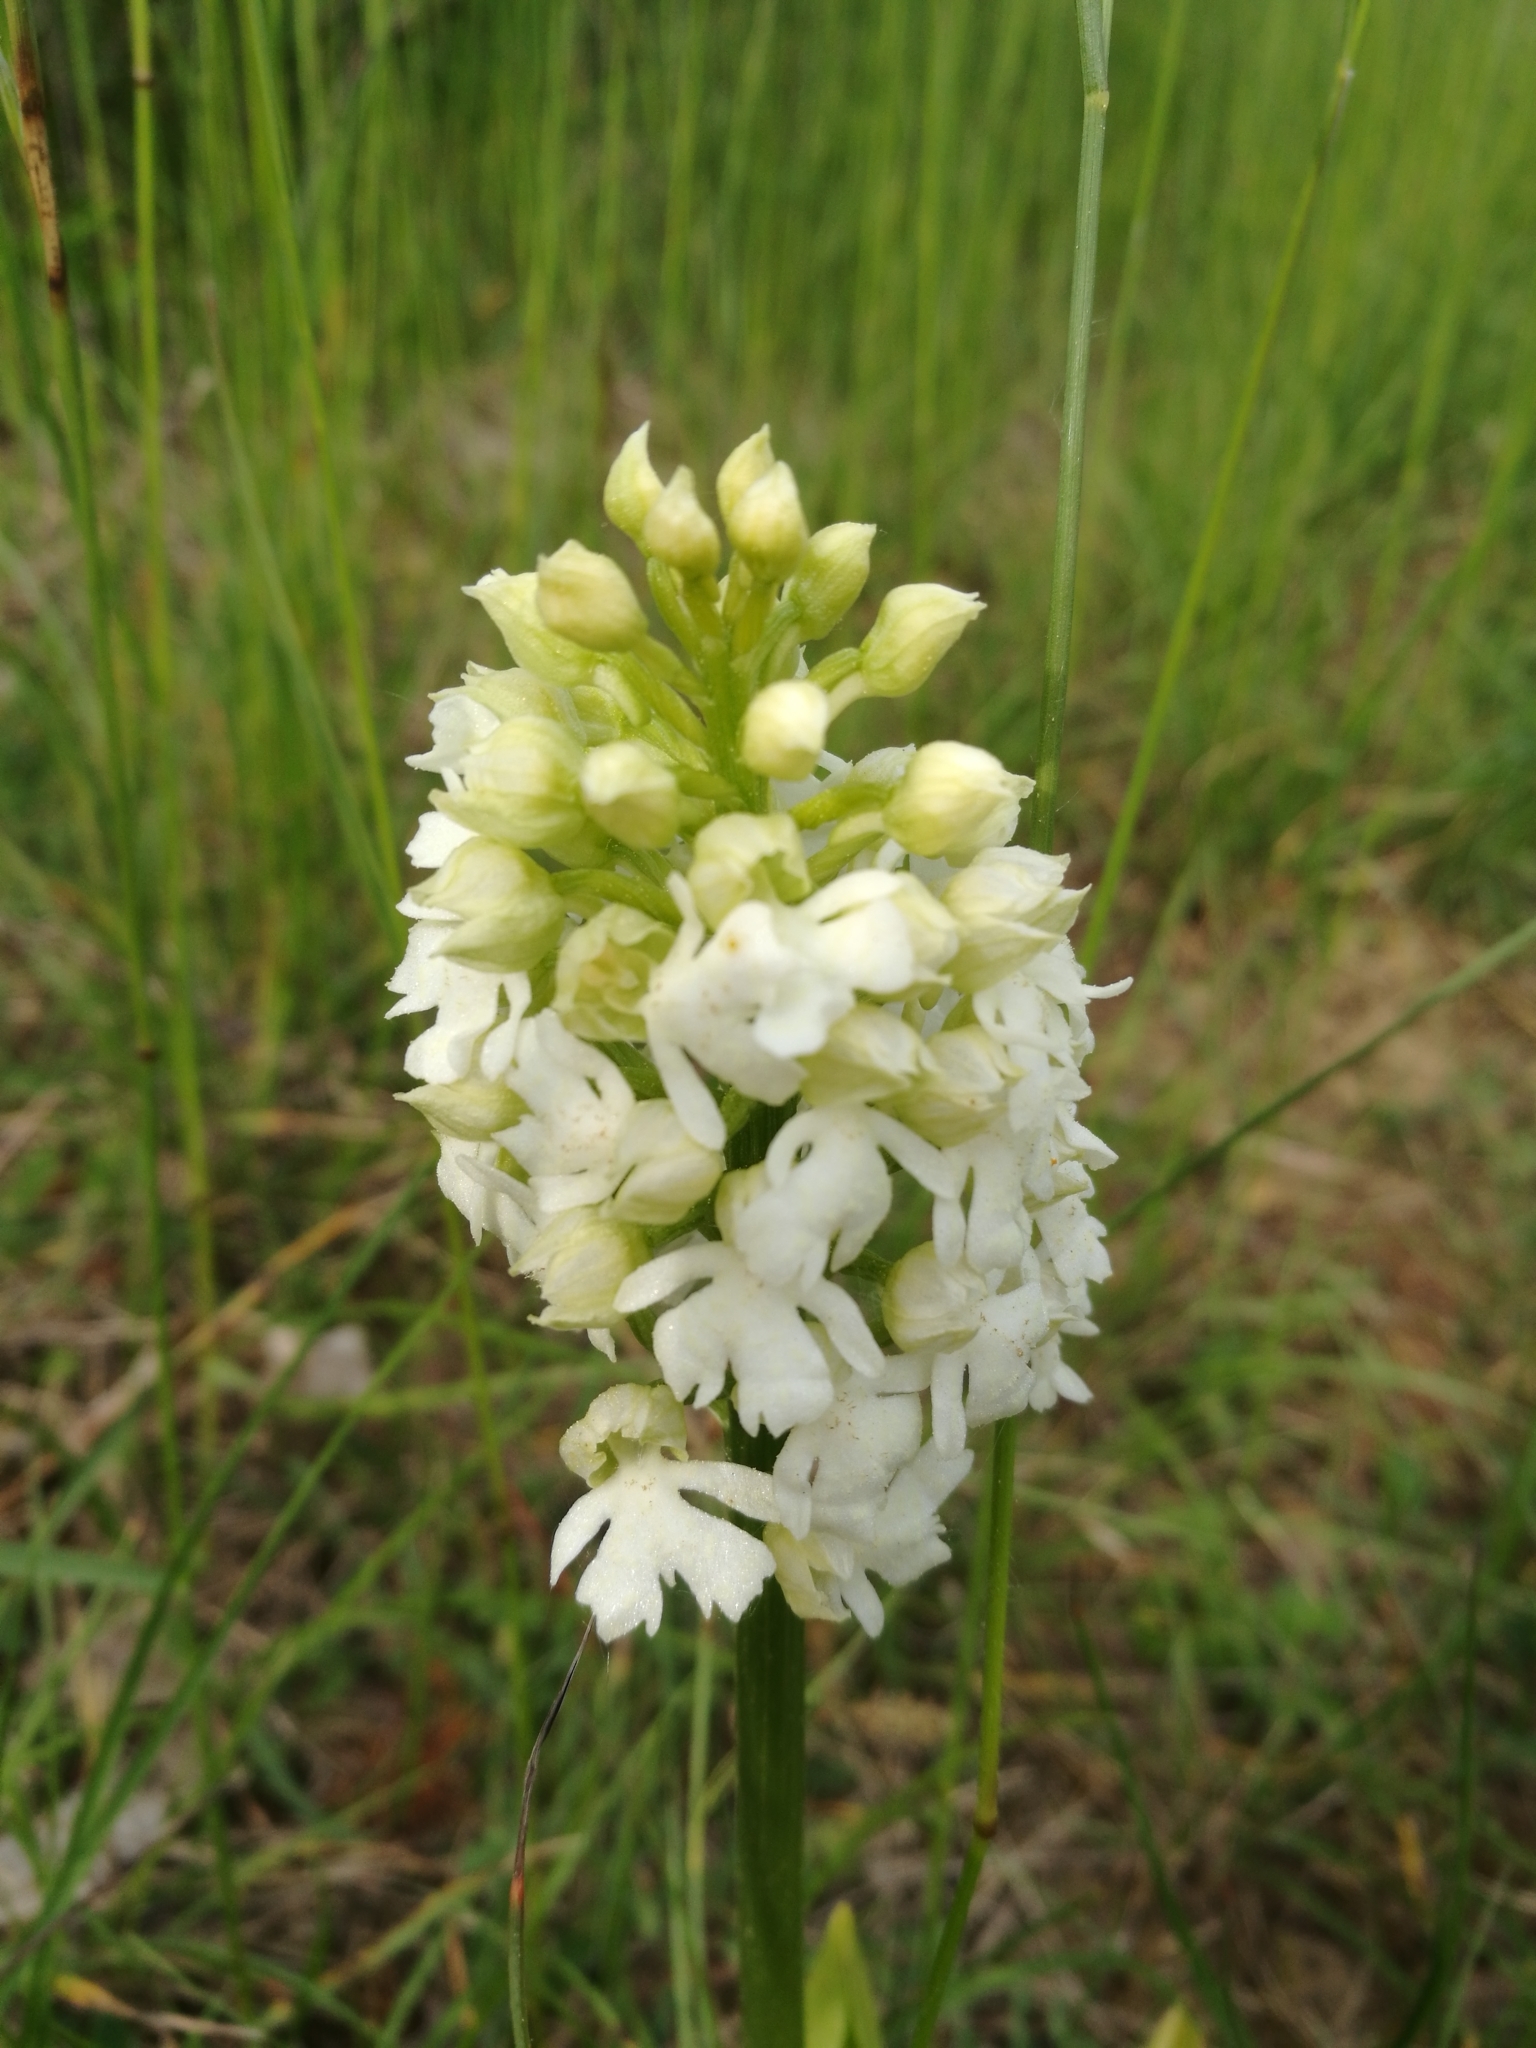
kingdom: Plantae
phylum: Tracheophyta
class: Liliopsida
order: Asparagales
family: Orchidaceae
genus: Orchis
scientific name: Orchis purpurea
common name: Lady orchid
